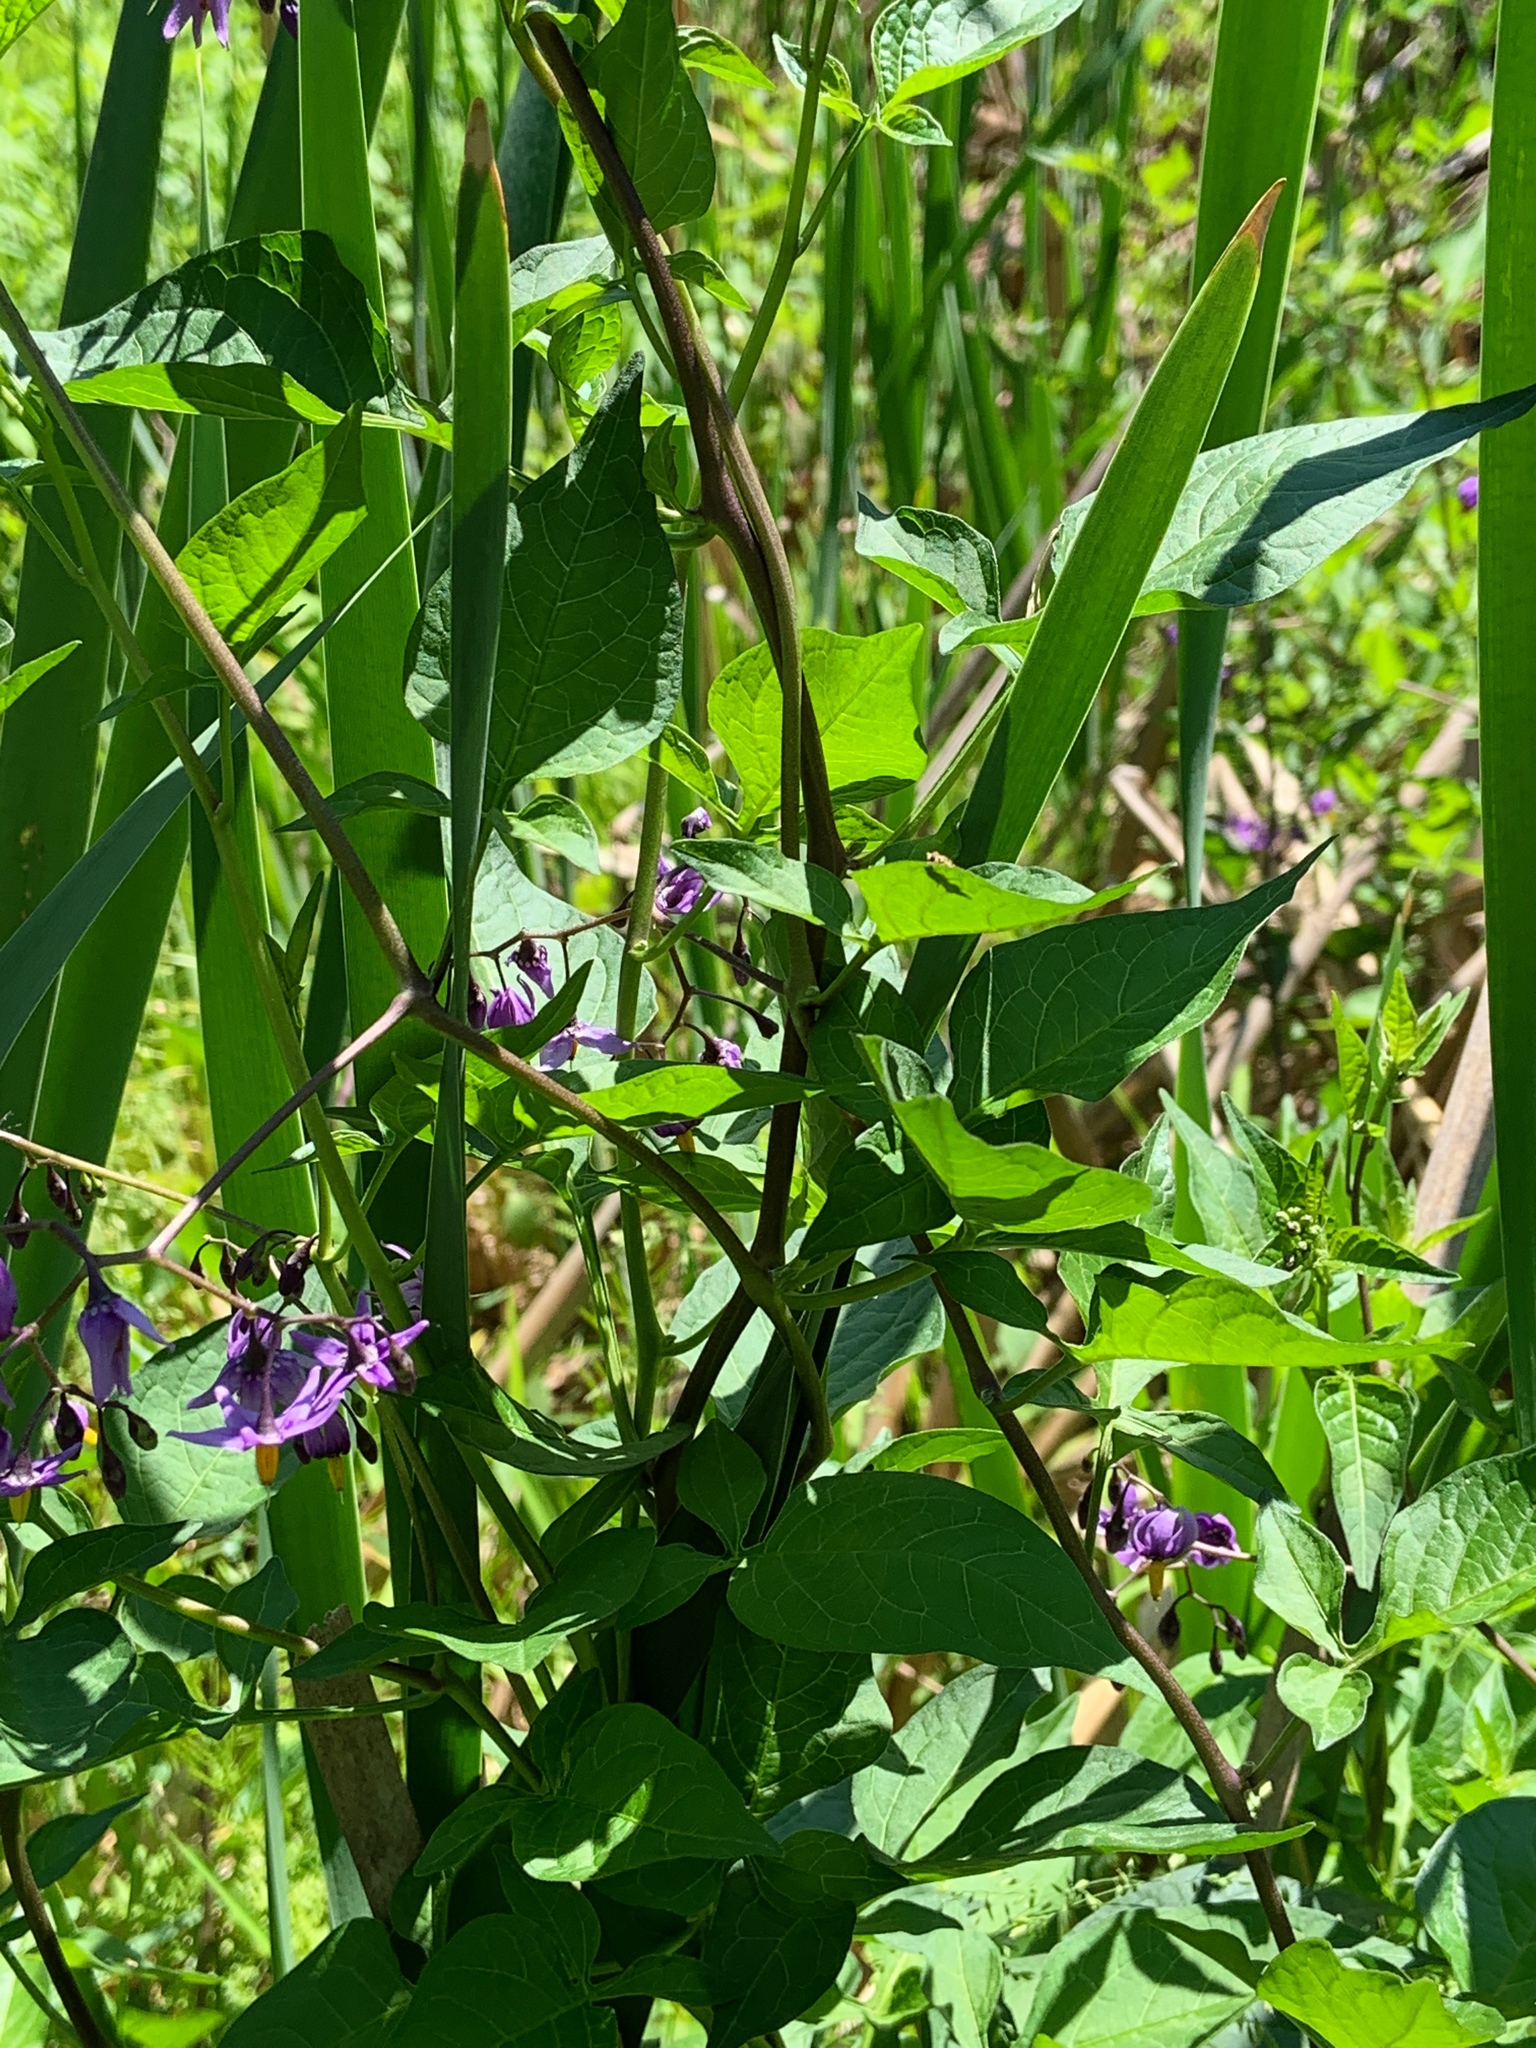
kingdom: Plantae
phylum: Tracheophyta
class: Magnoliopsida
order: Solanales
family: Solanaceae
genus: Solanum
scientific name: Solanum dulcamara
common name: Climbing nightshade
